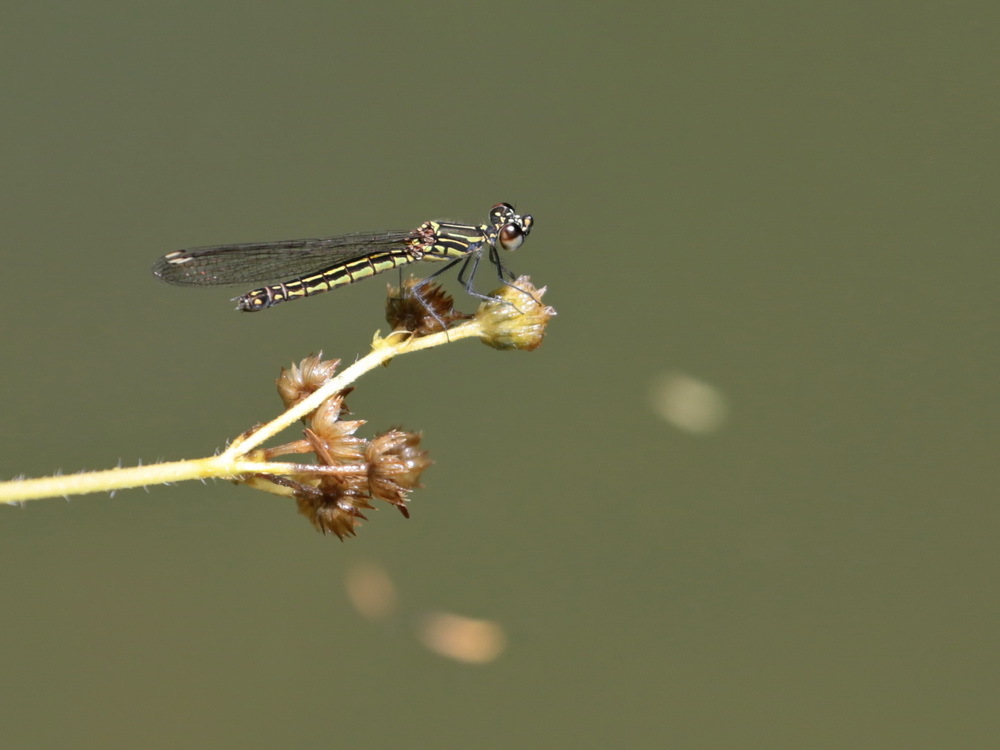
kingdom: Animalia
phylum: Arthropoda
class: Insecta
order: Odonata
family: Chlorocyphidae
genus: Libellago
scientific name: Libellago lineata
